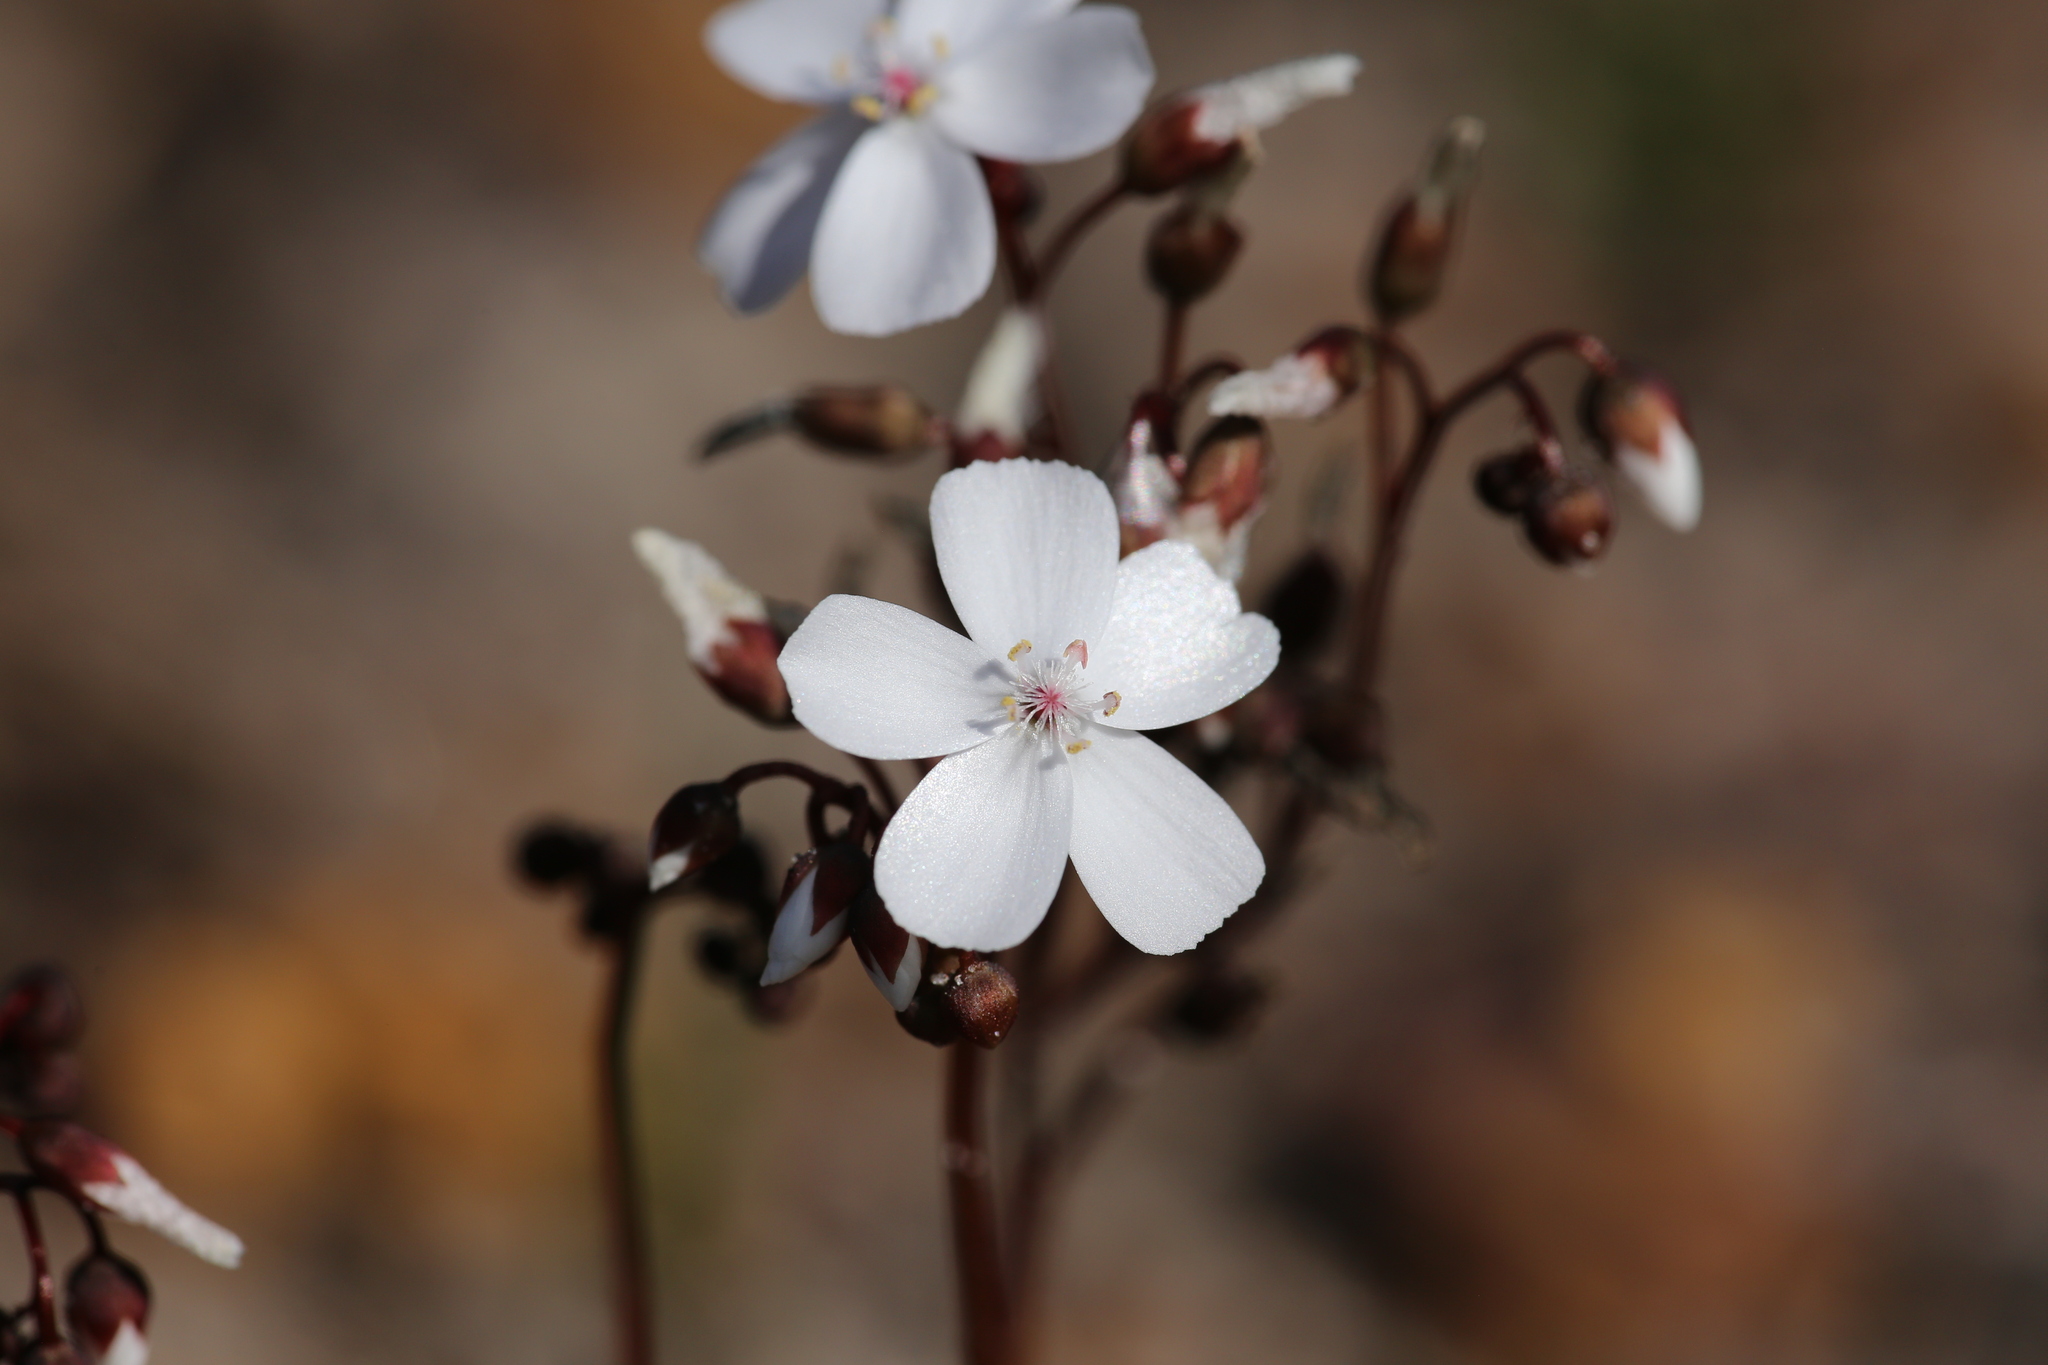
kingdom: Plantae
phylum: Tracheophyta
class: Magnoliopsida
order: Caryophyllales
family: Droseraceae
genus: Drosera
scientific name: Drosera platypoda
